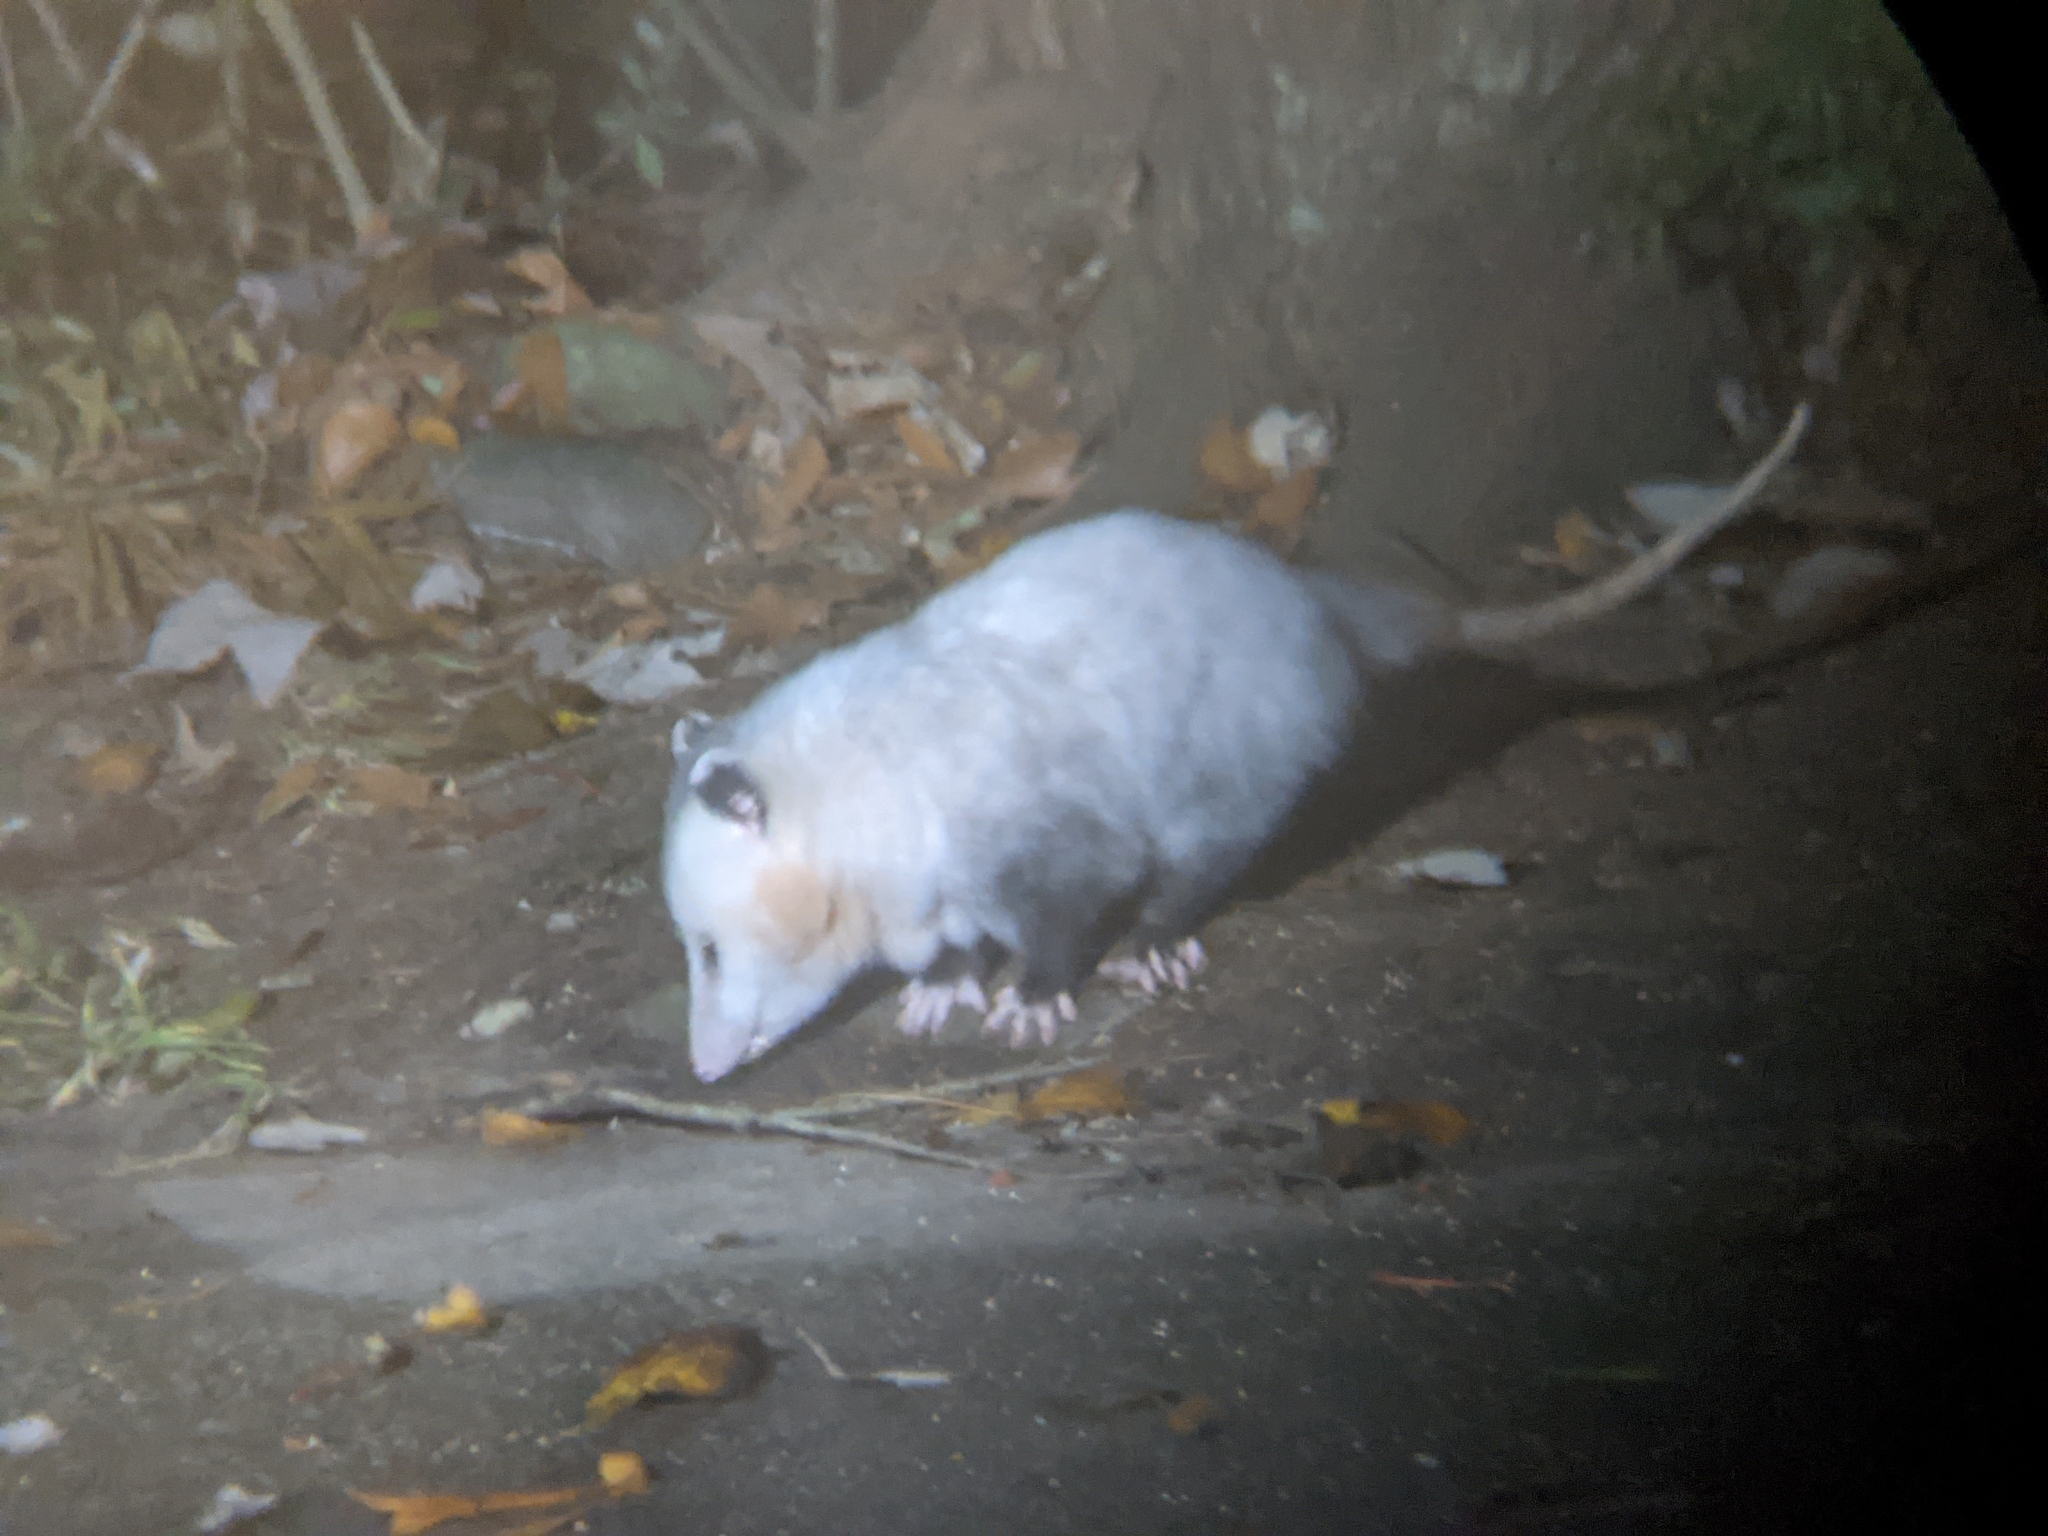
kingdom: Animalia
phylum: Chordata
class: Mammalia
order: Didelphimorphia
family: Didelphidae
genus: Didelphis
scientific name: Didelphis virginiana
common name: Virginia opossum
